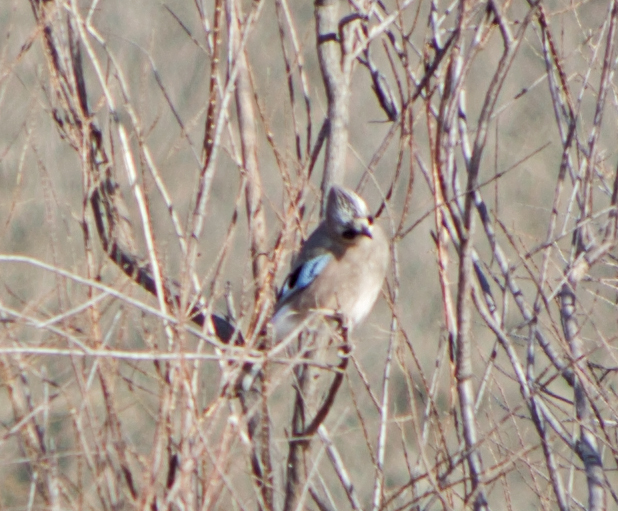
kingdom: Animalia
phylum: Chordata
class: Aves
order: Passeriformes
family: Corvidae
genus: Garrulus
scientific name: Garrulus glandarius
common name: Eurasian jay
